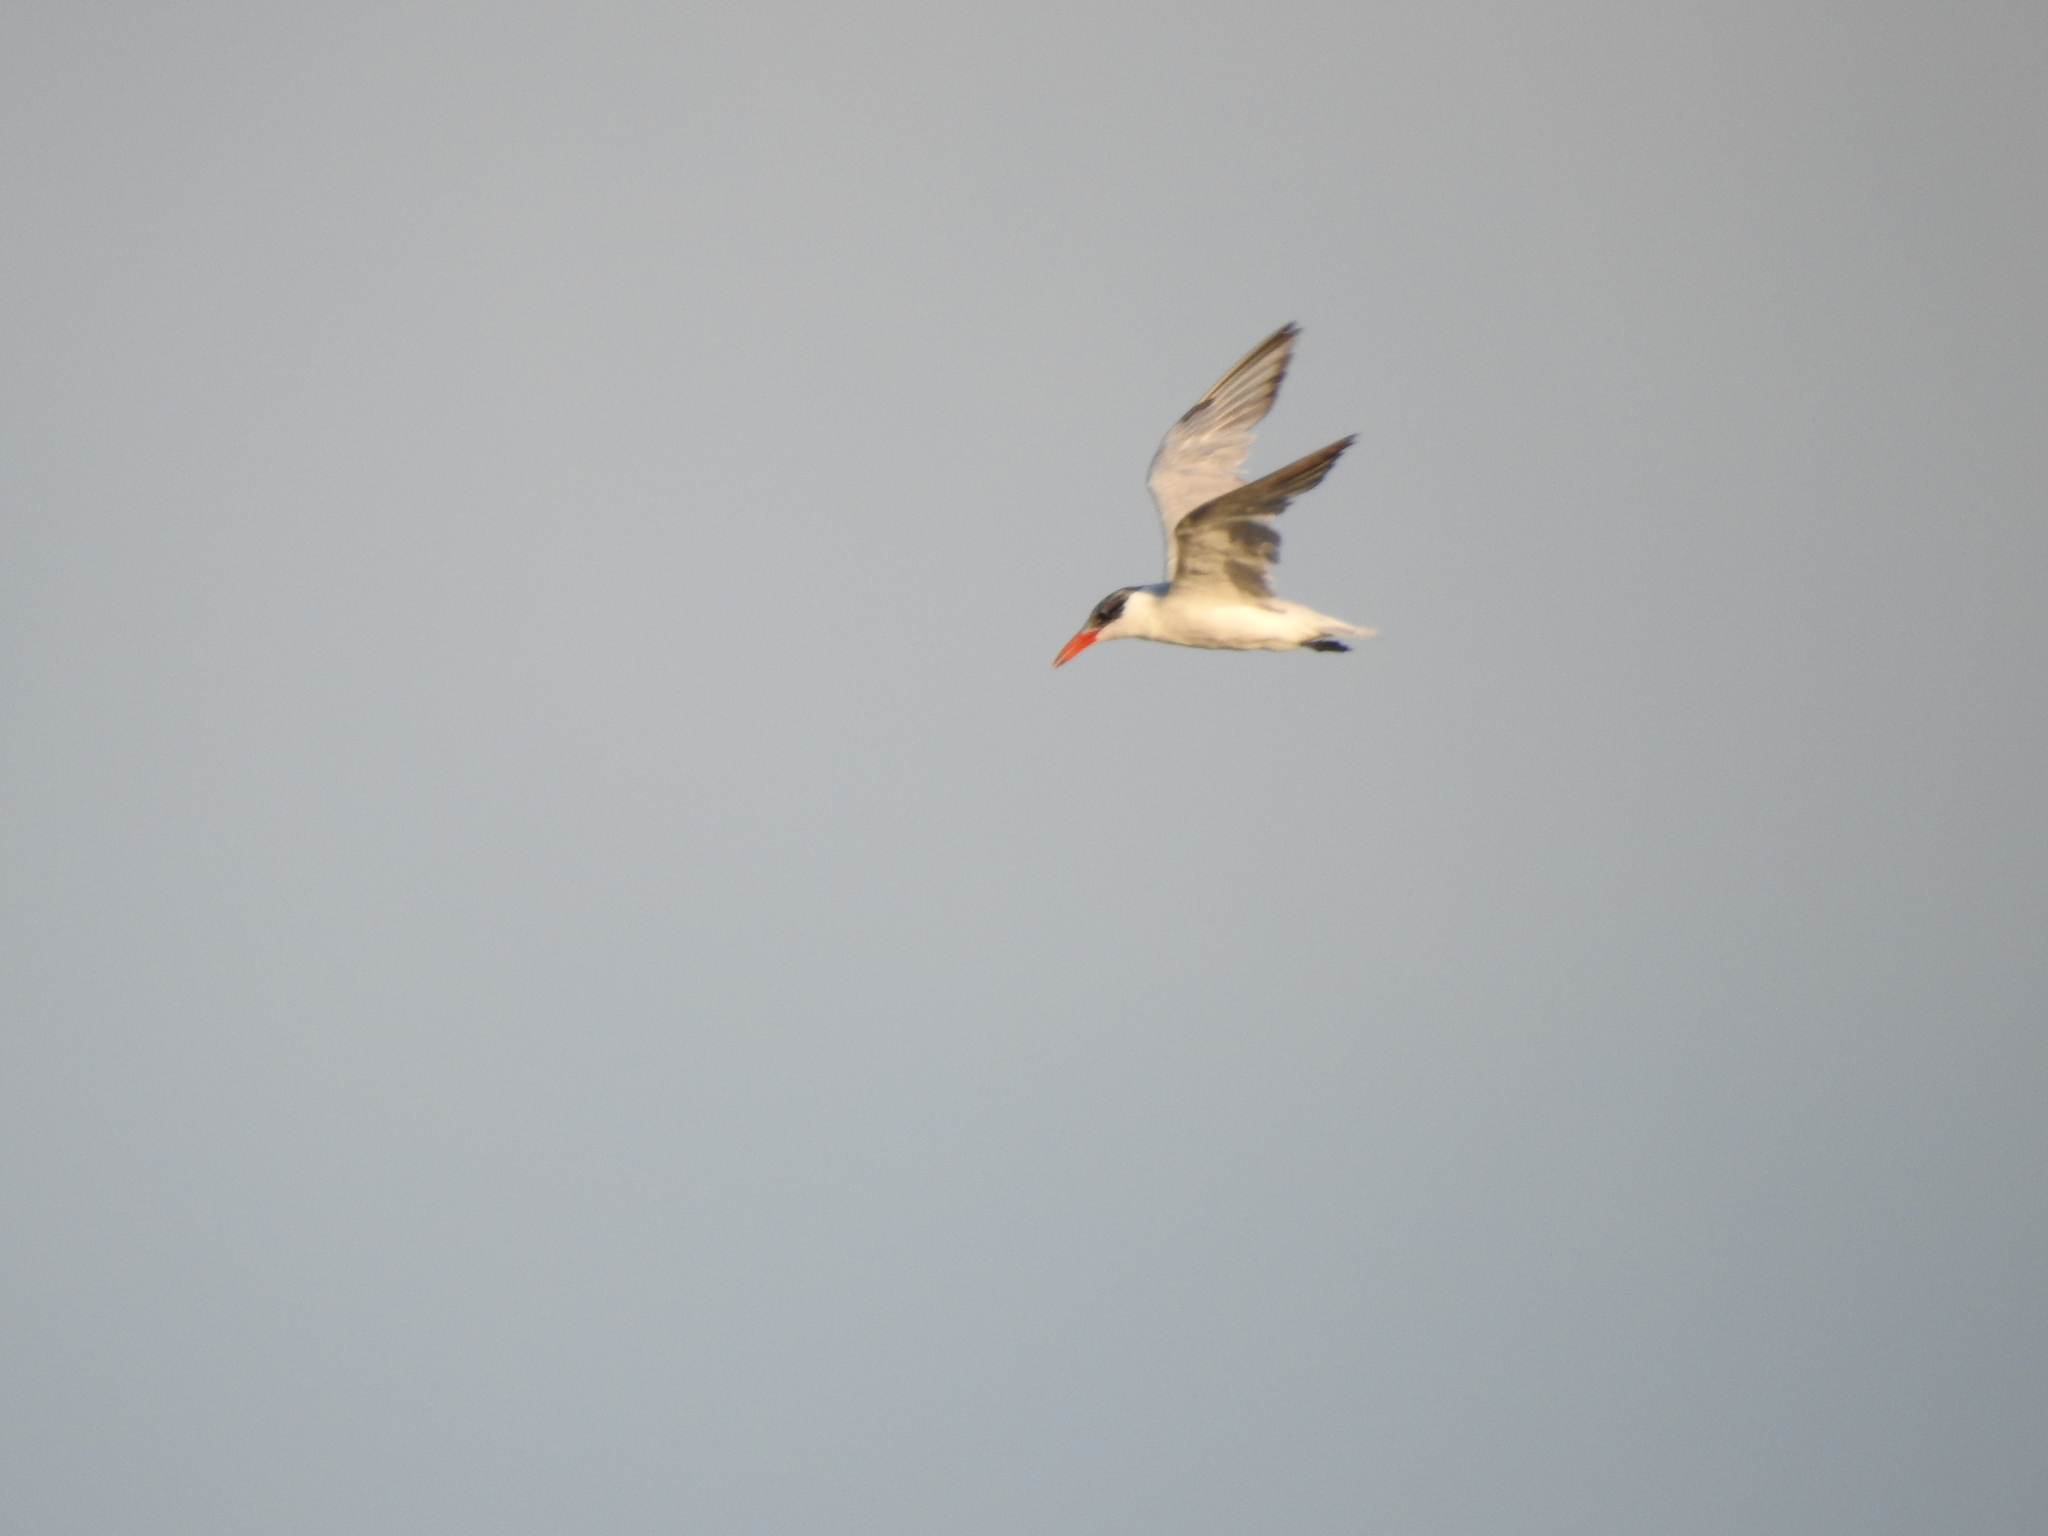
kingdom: Animalia
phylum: Chordata
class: Aves
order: Charadriiformes
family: Laridae
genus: Hydroprogne
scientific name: Hydroprogne caspia
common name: Caspian tern
